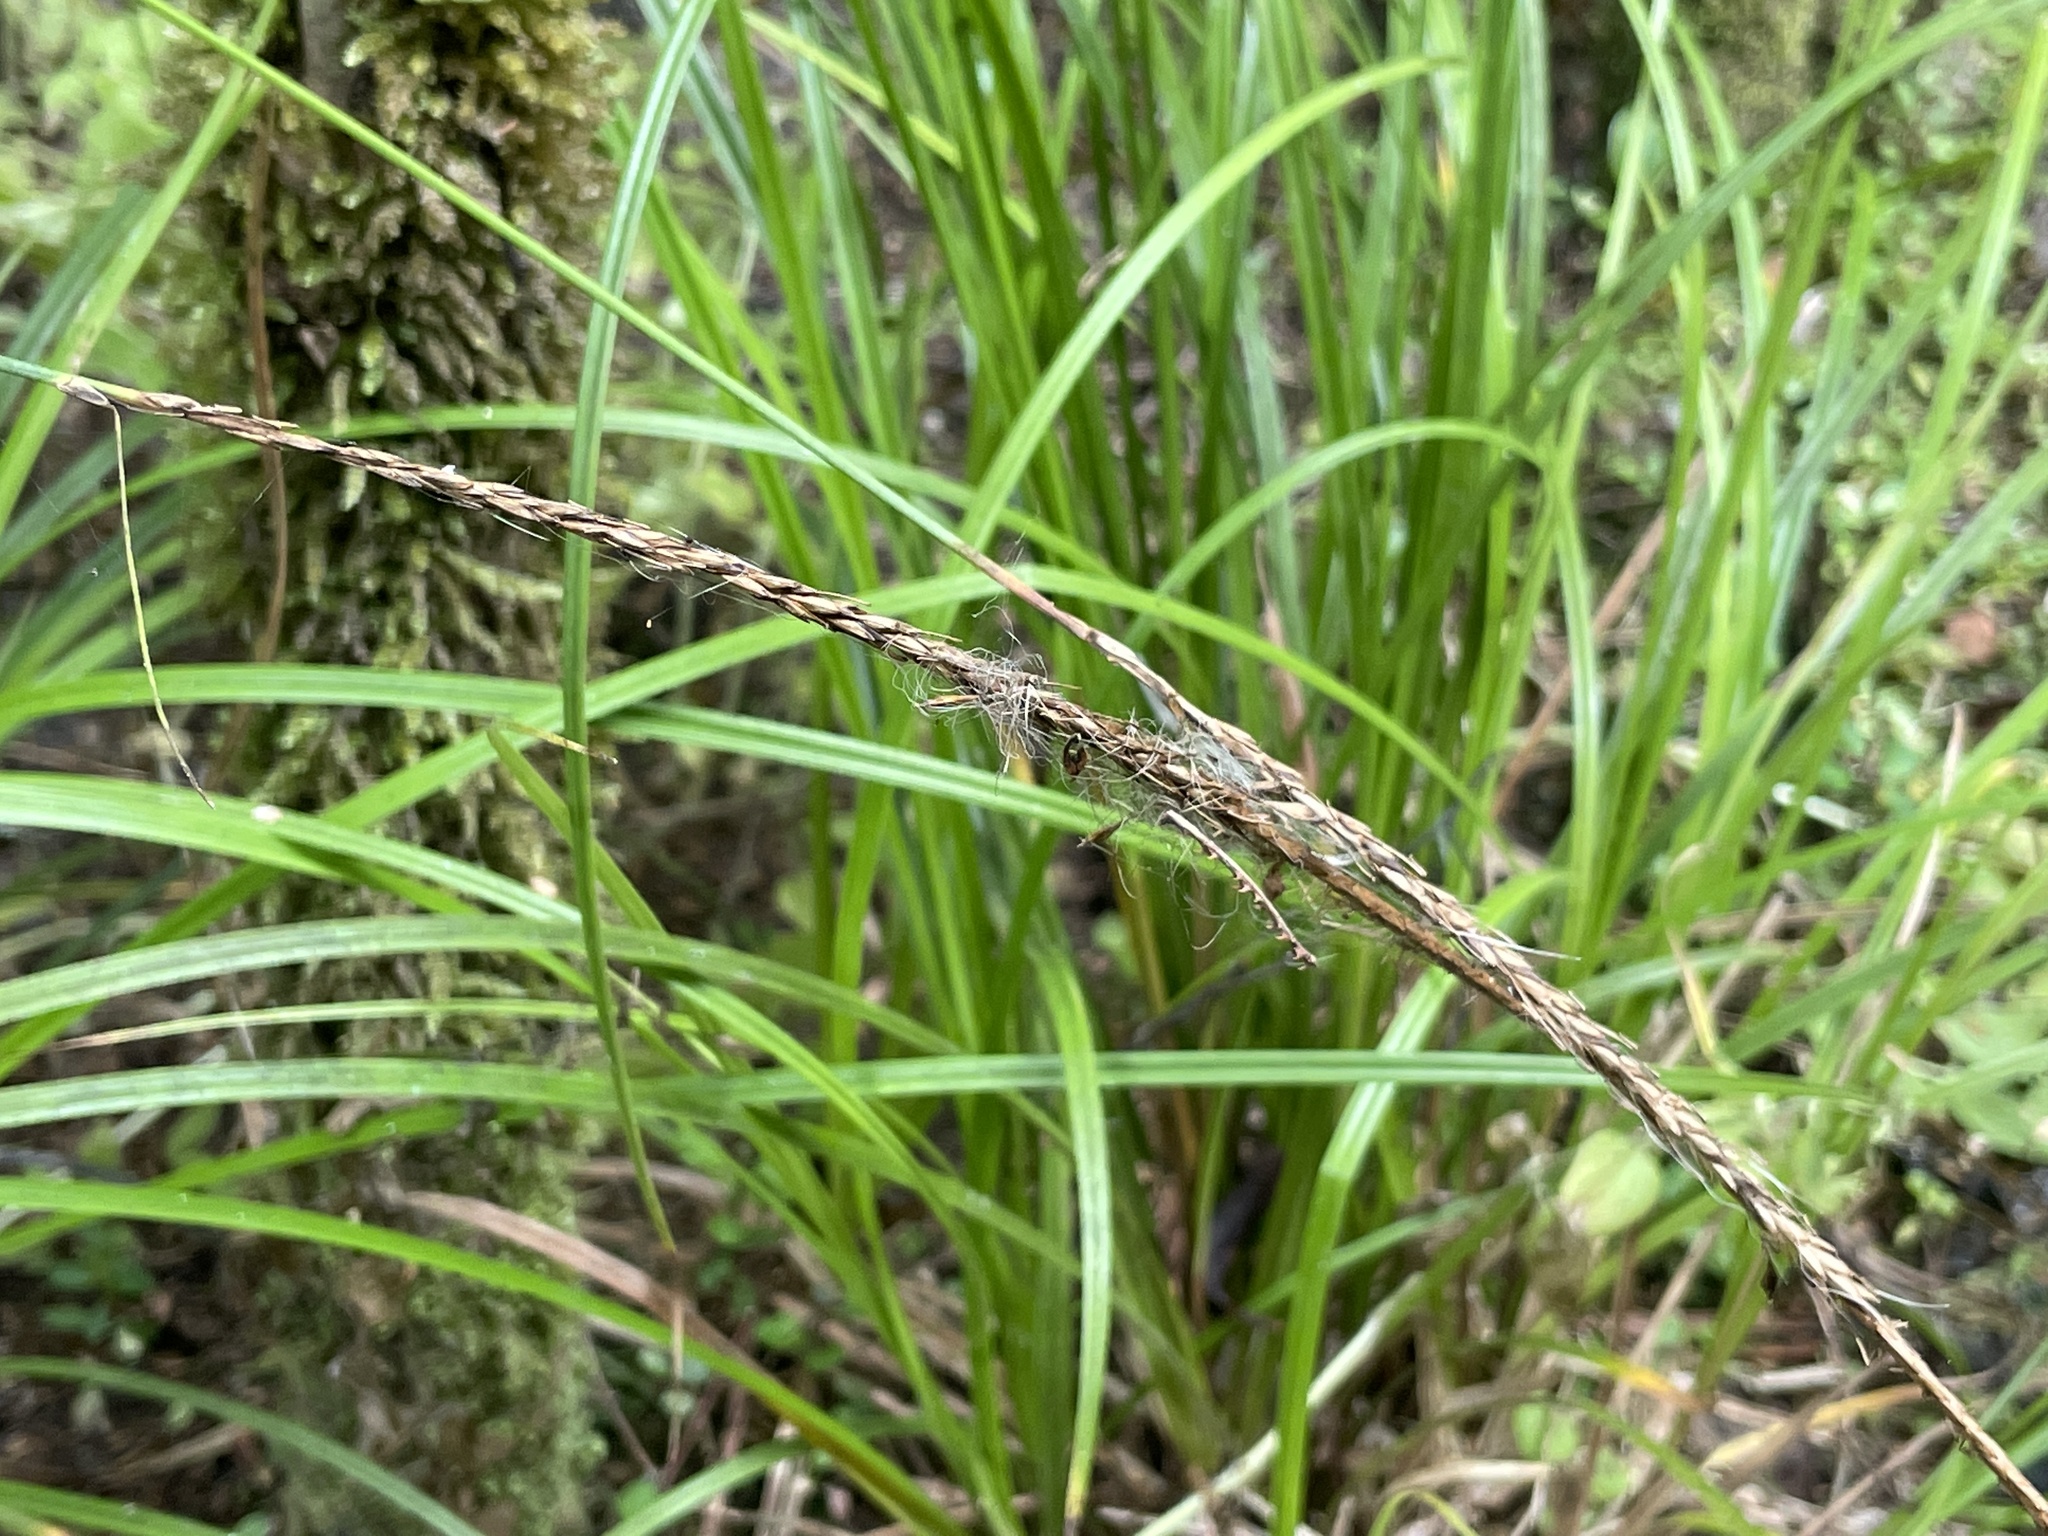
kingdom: Plantae
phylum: Tracheophyta
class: Liliopsida
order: Poales
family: Cyperaceae
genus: Carex
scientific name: Carex uncinata
